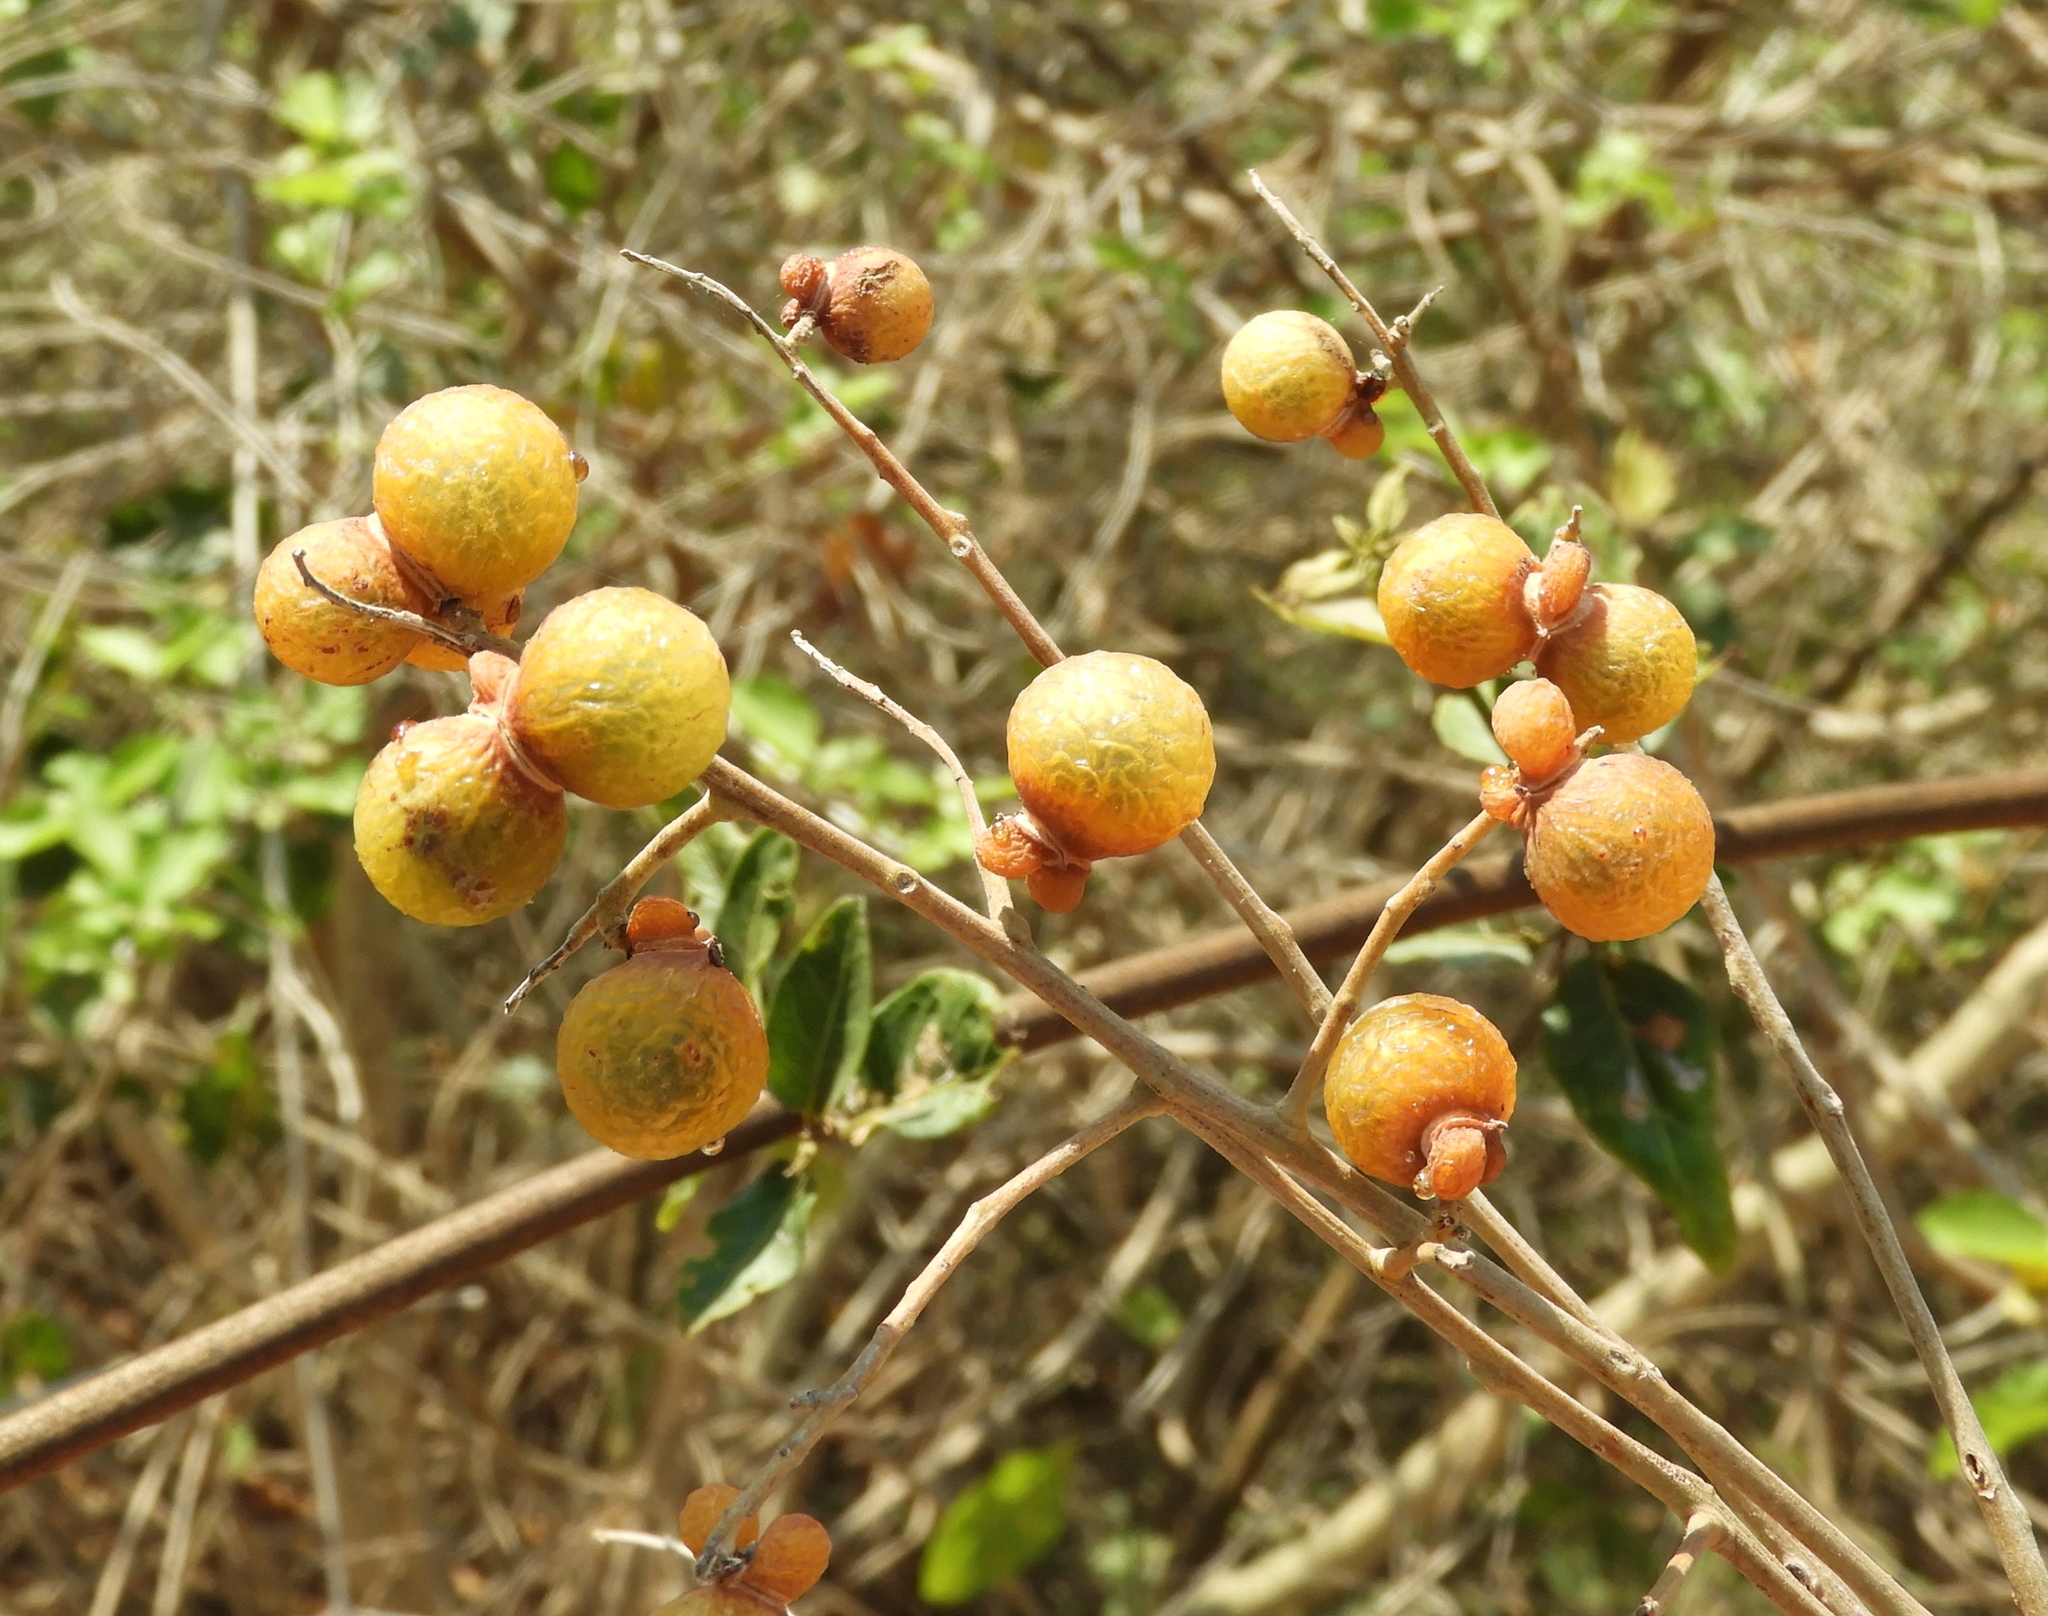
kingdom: Plantae
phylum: Tracheophyta
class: Magnoliopsida
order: Sapindales
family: Sapindaceae
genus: Sapindus
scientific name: Sapindus drummondii
